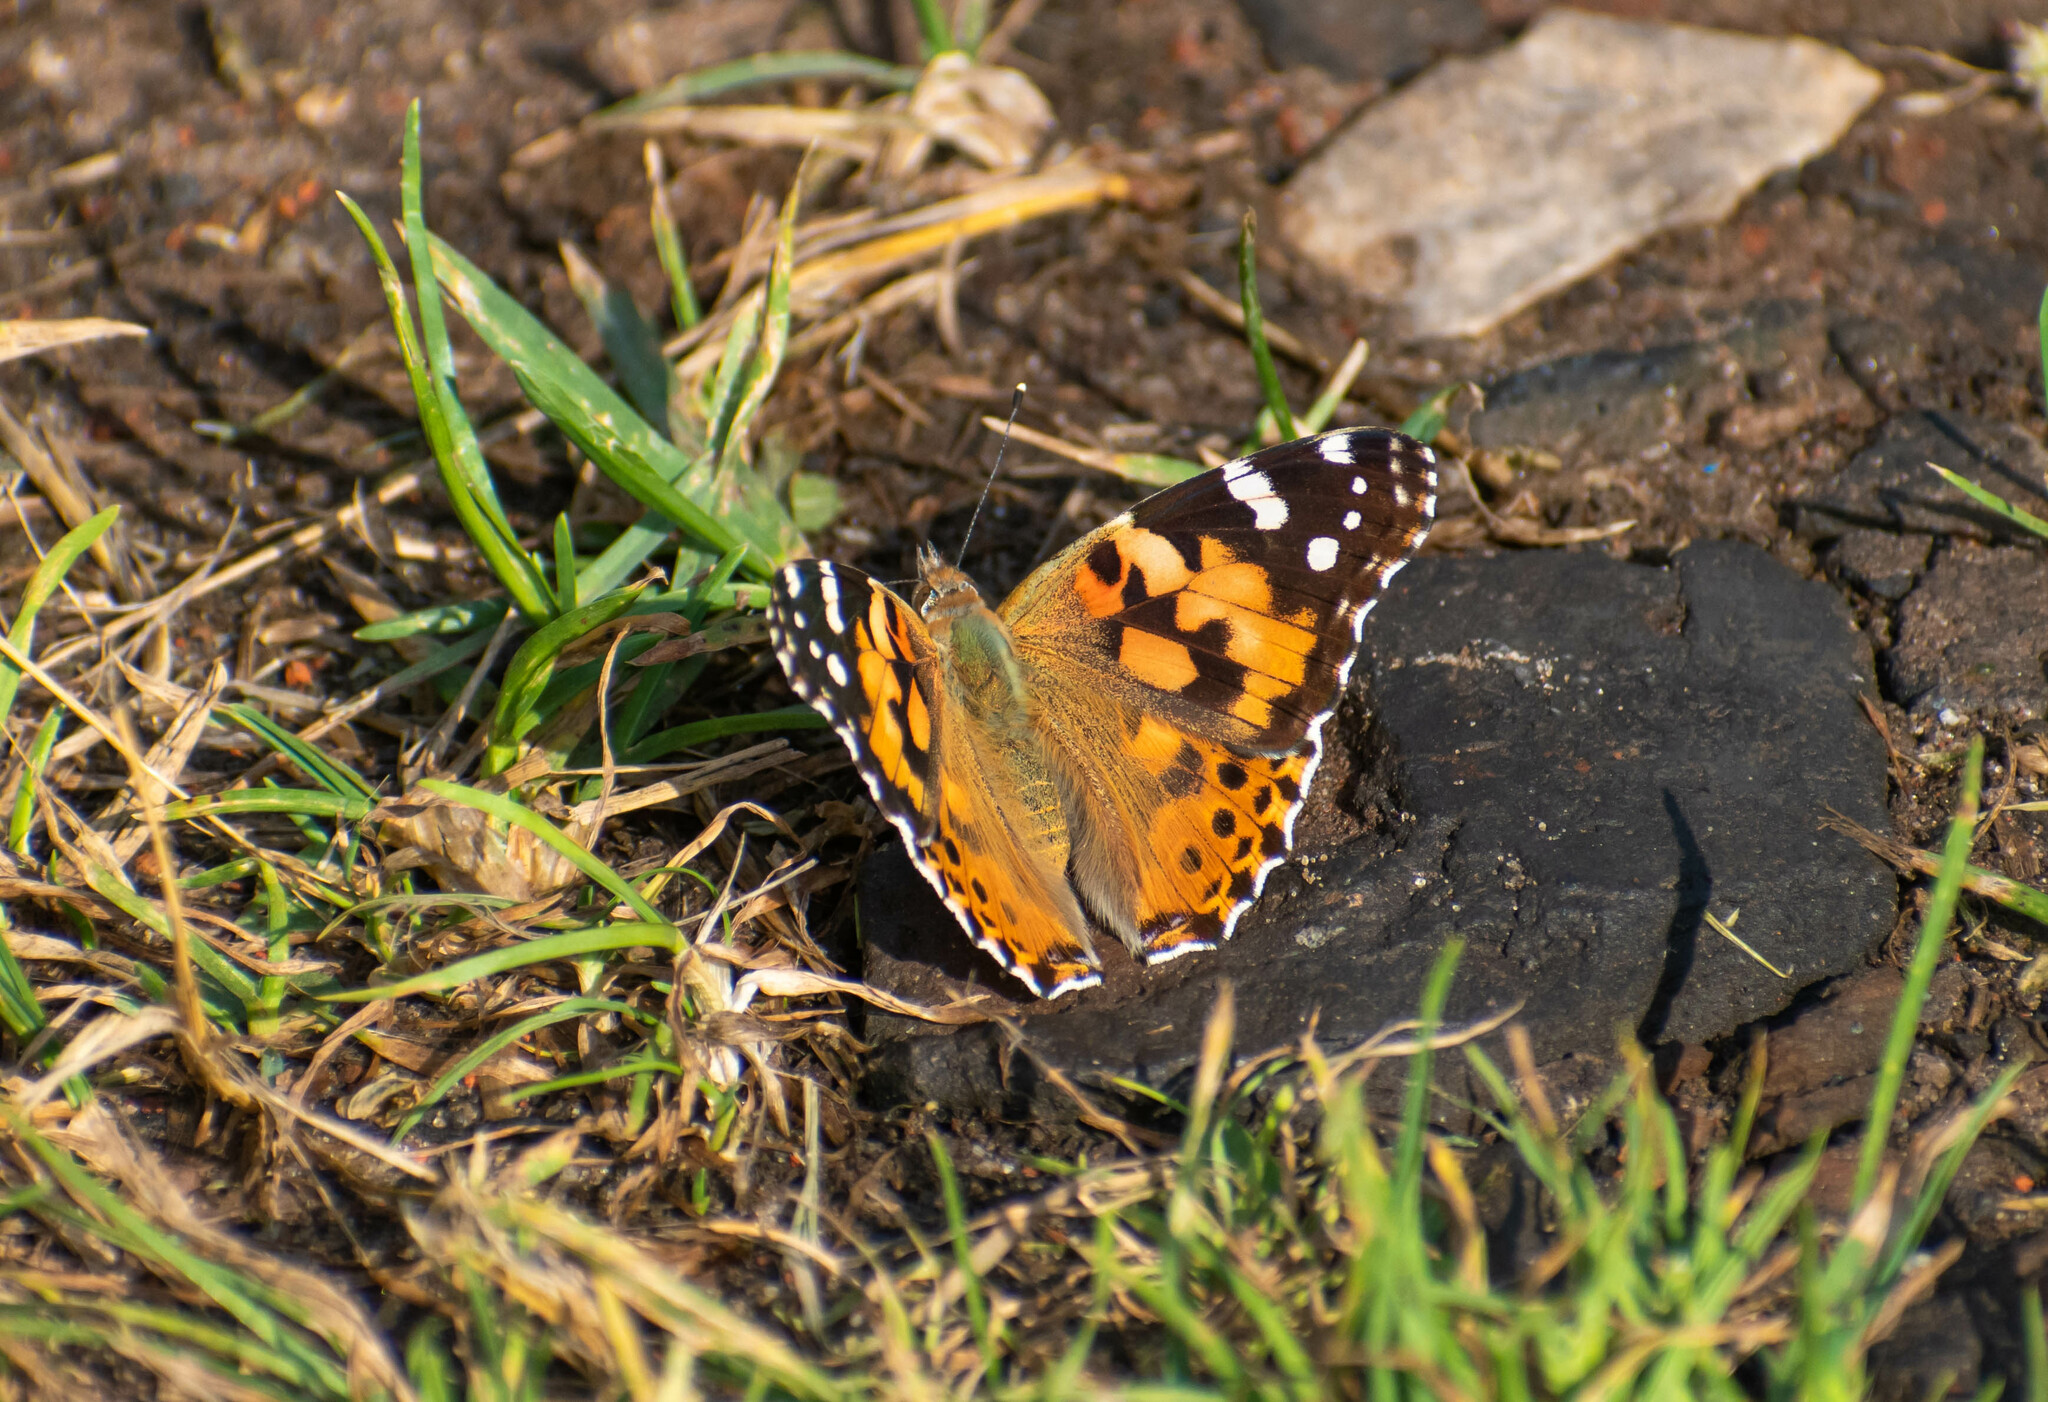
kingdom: Animalia
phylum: Arthropoda
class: Insecta
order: Lepidoptera
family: Nymphalidae
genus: Vanessa
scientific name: Vanessa cardui
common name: Painted lady
